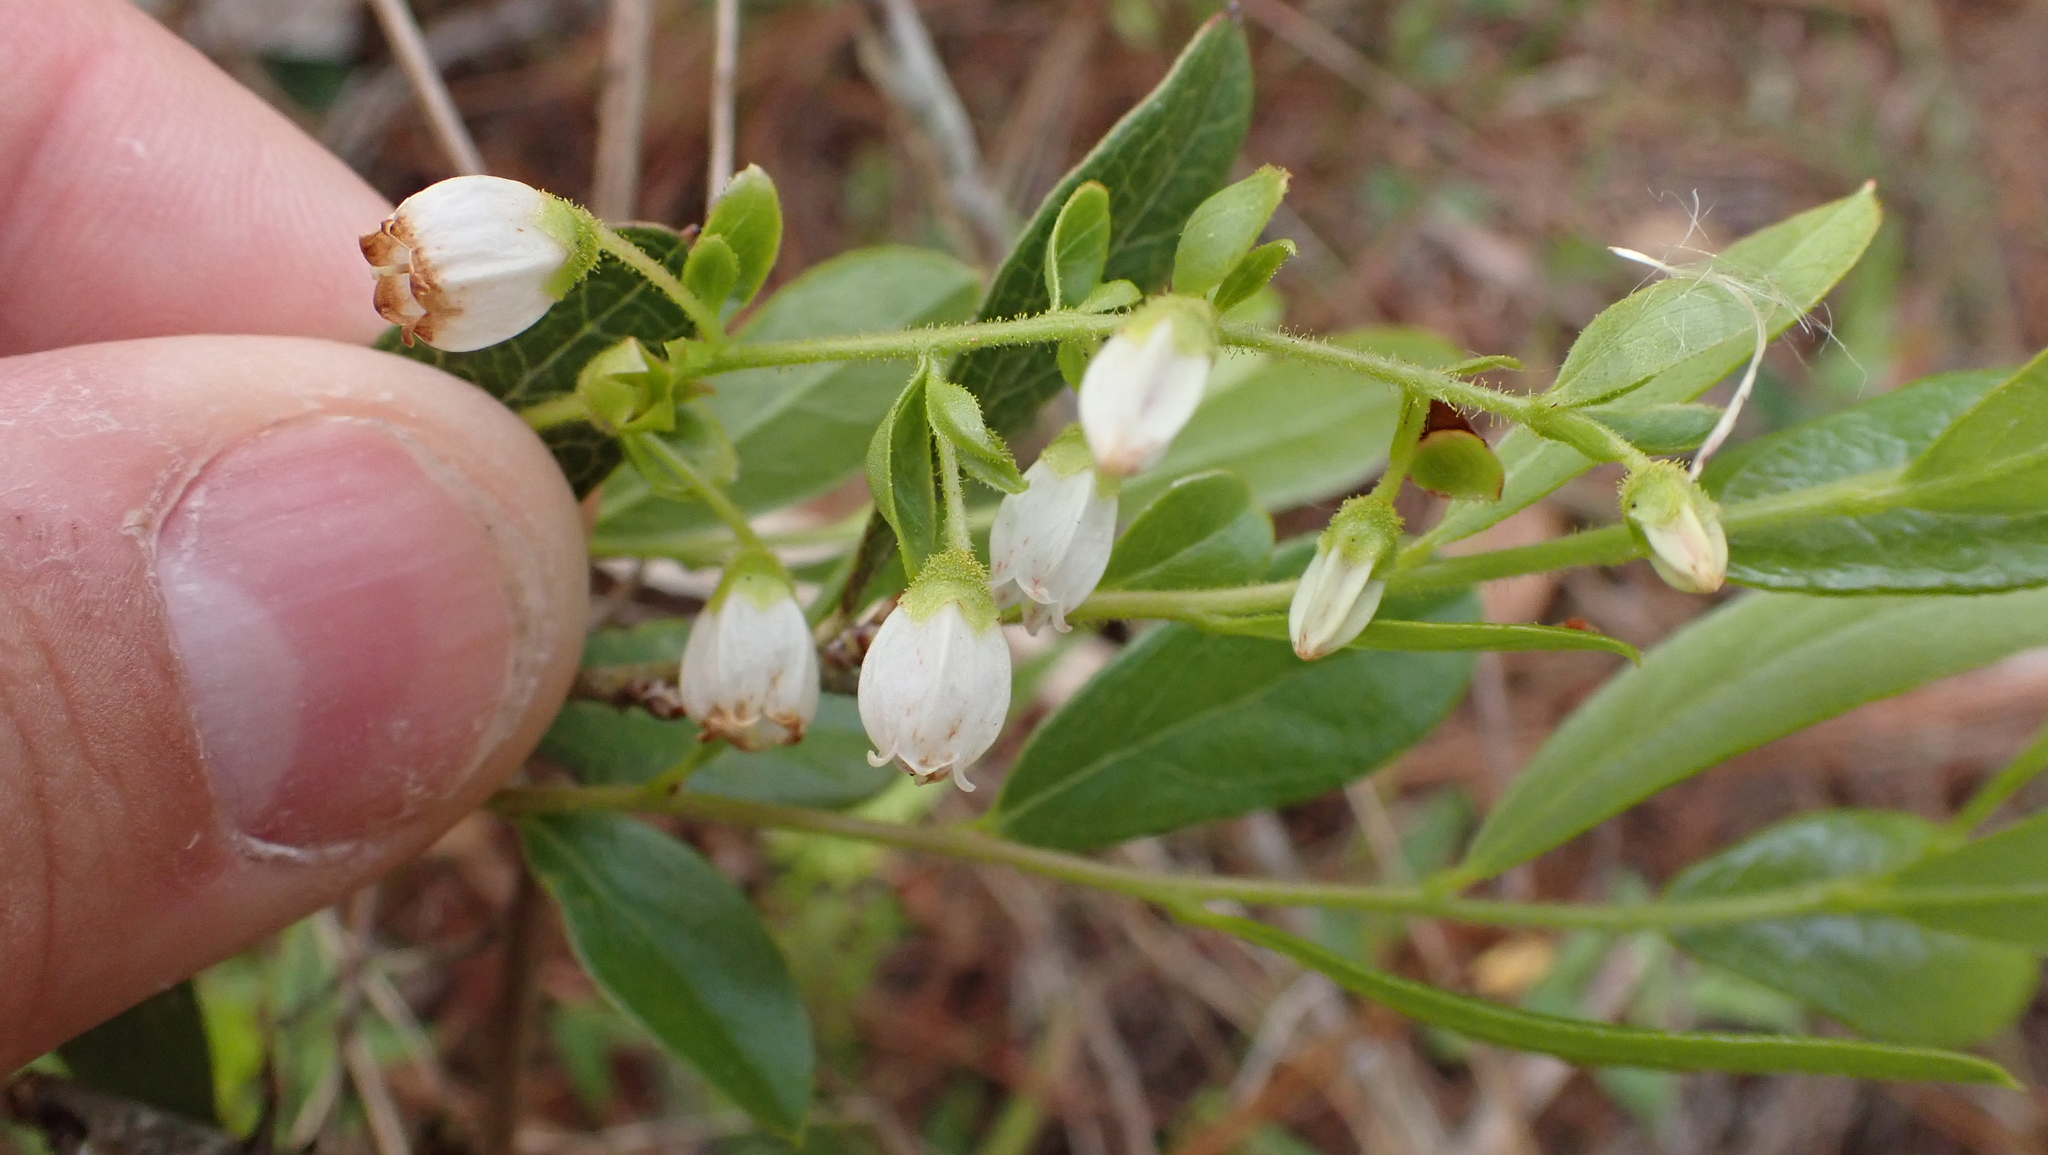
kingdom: Plantae
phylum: Tracheophyta
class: Magnoliopsida
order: Ericales
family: Ericaceae
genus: Gaylussacia
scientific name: Gaylussacia dumosa
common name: Dwarf huckleberry
